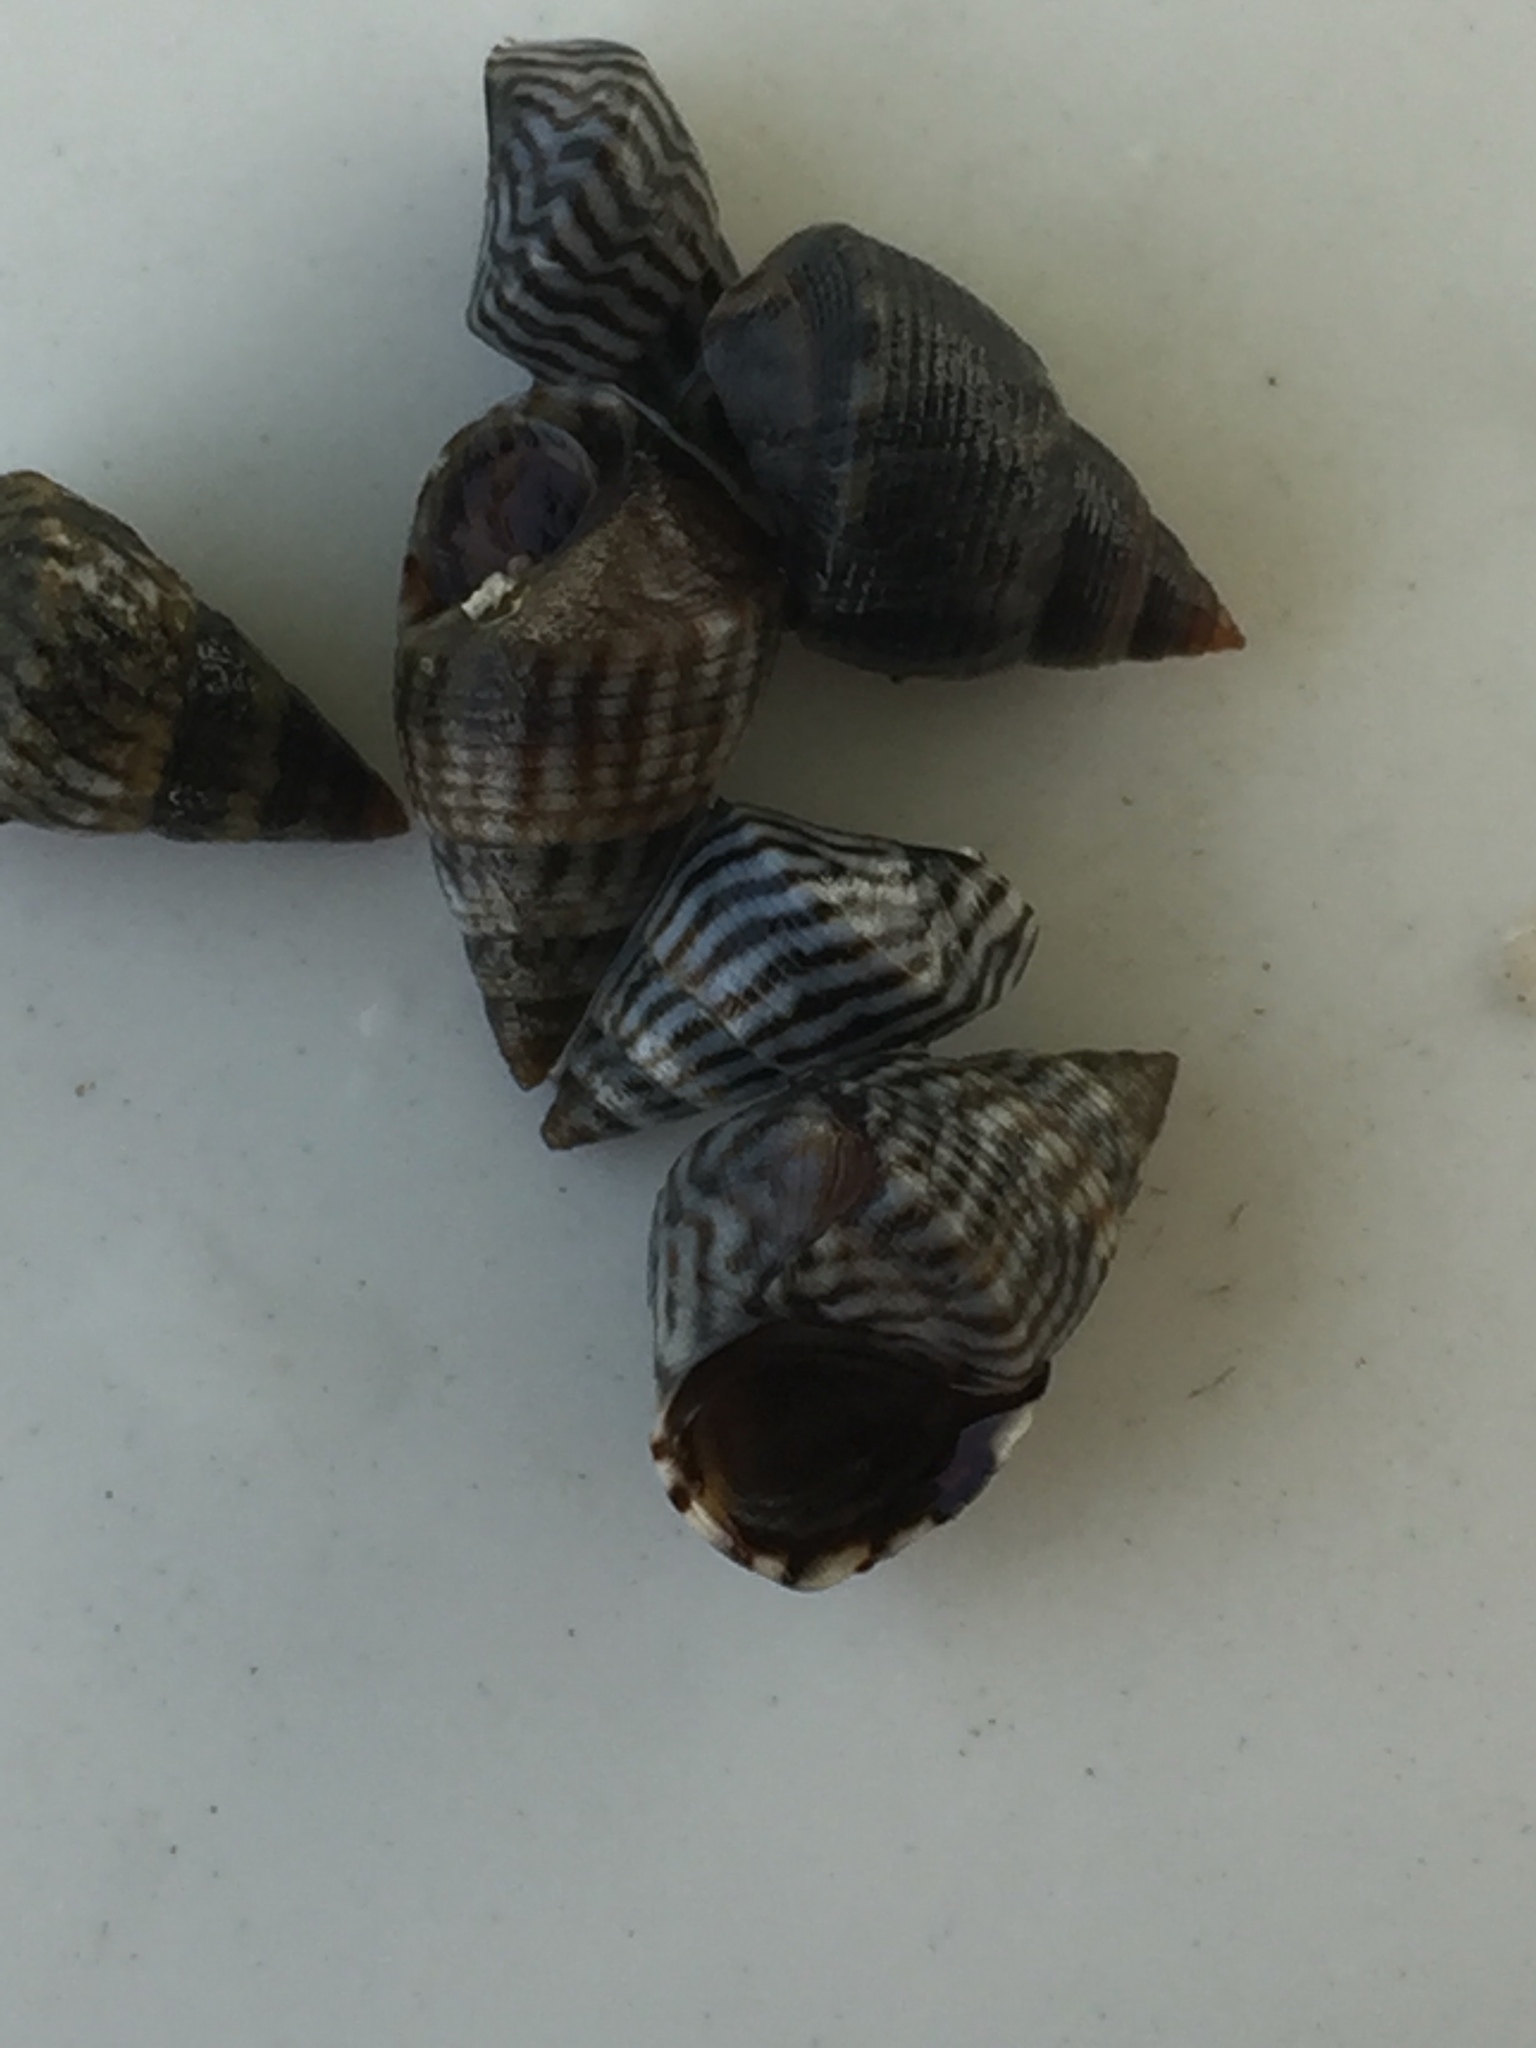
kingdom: Animalia
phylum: Mollusca
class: Gastropoda
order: Littorinimorpha
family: Littorinidae
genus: Echinolittorina
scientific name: Echinolittorina ziczac
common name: Zebra periwinkle
